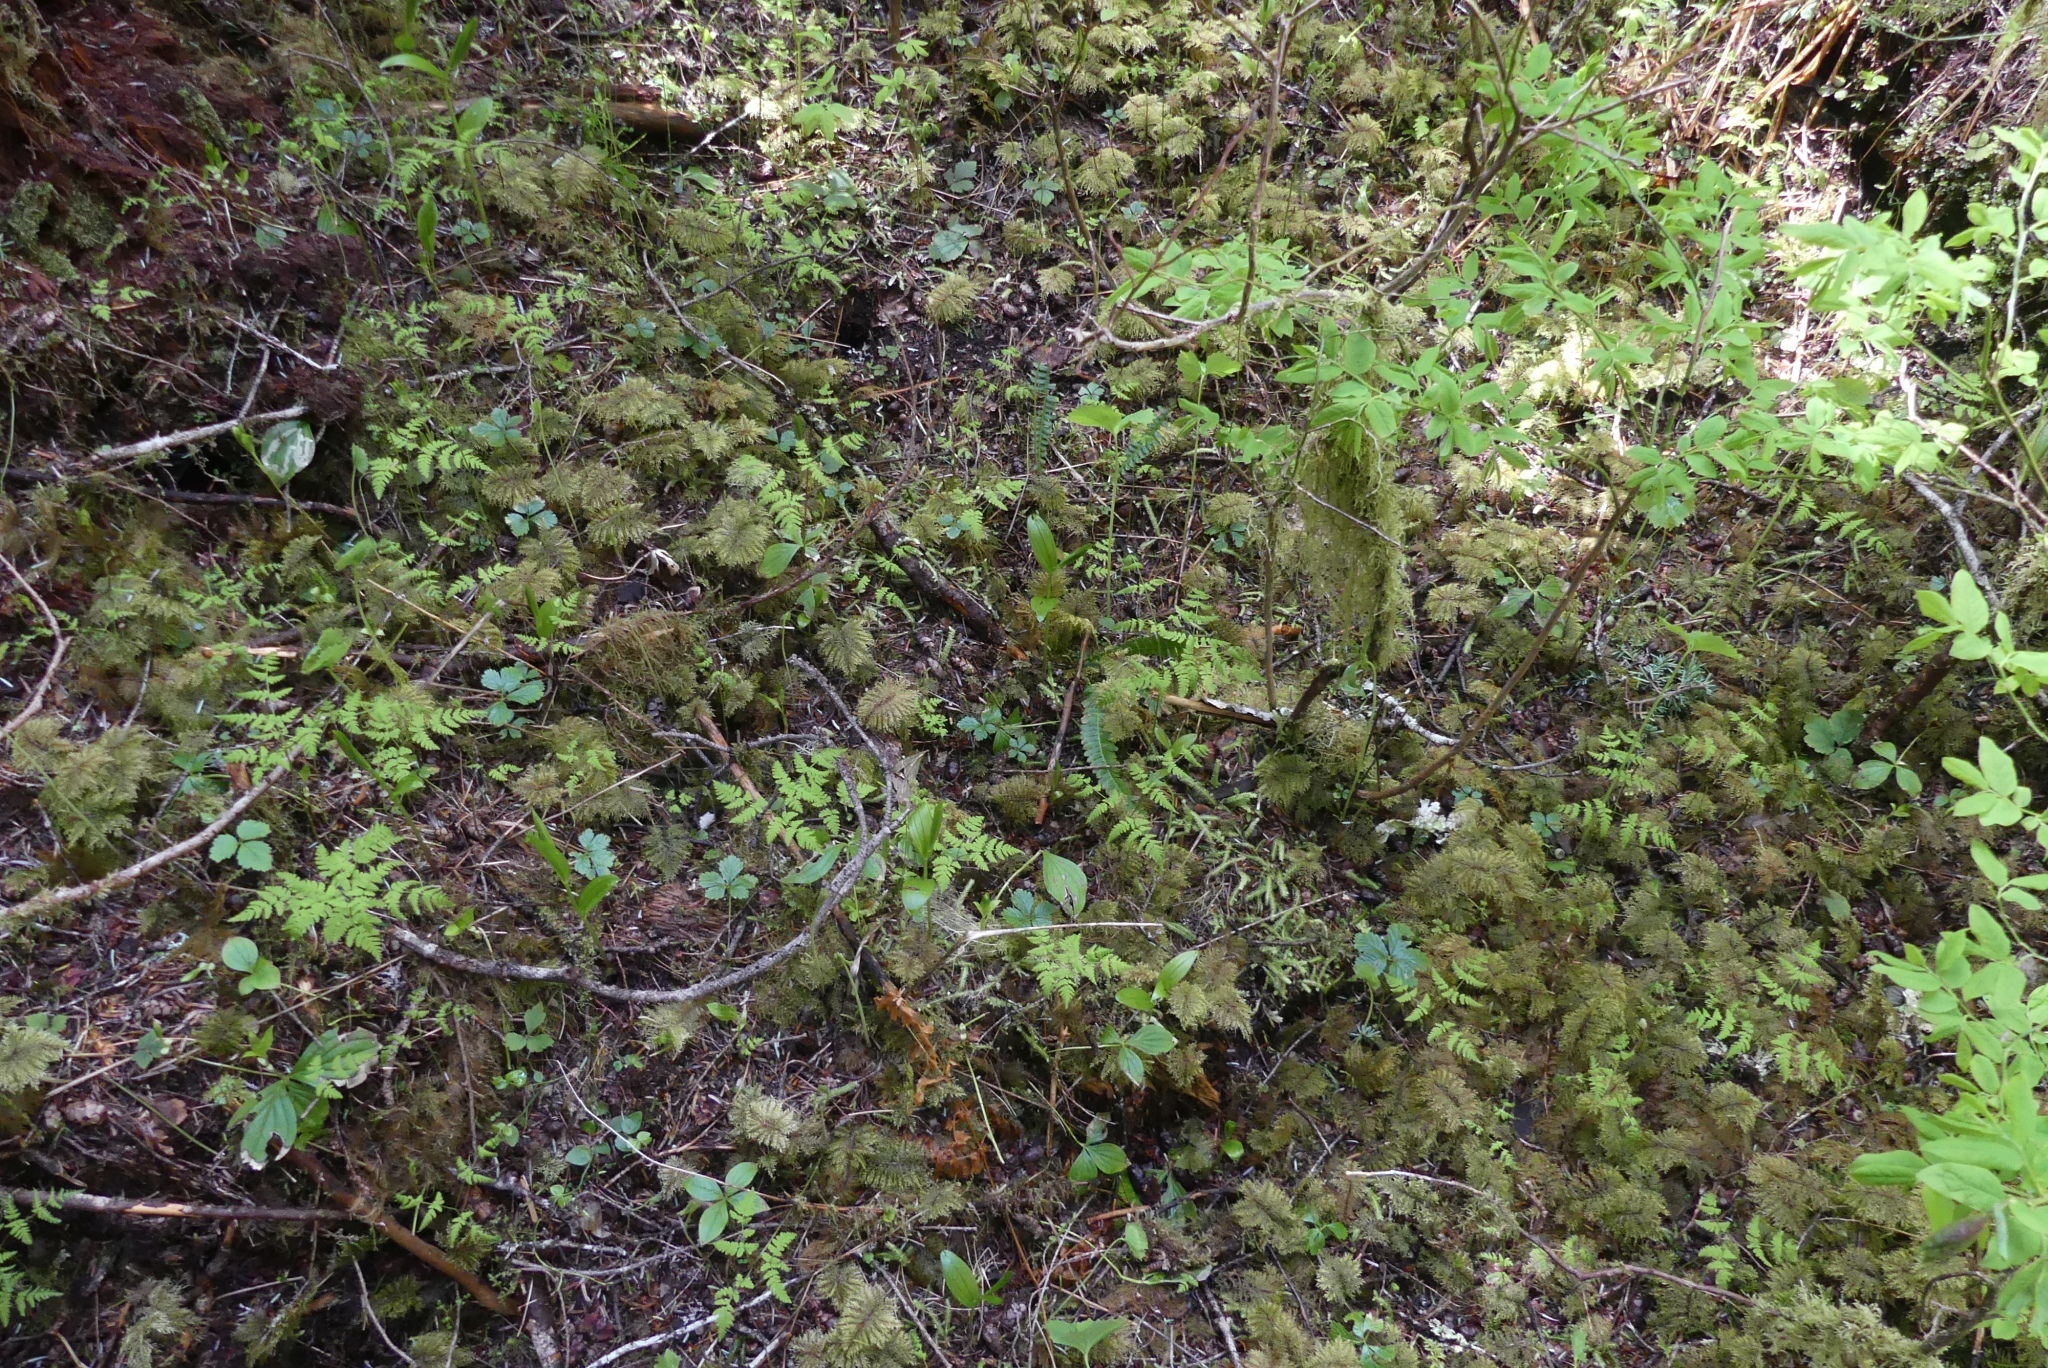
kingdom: Plantae
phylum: Tracheophyta
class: Polypodiopsida
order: Polypodiales
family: Blechnaceae
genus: Struthiopteris
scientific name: Struthiopteris spicant
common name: Deer fern
